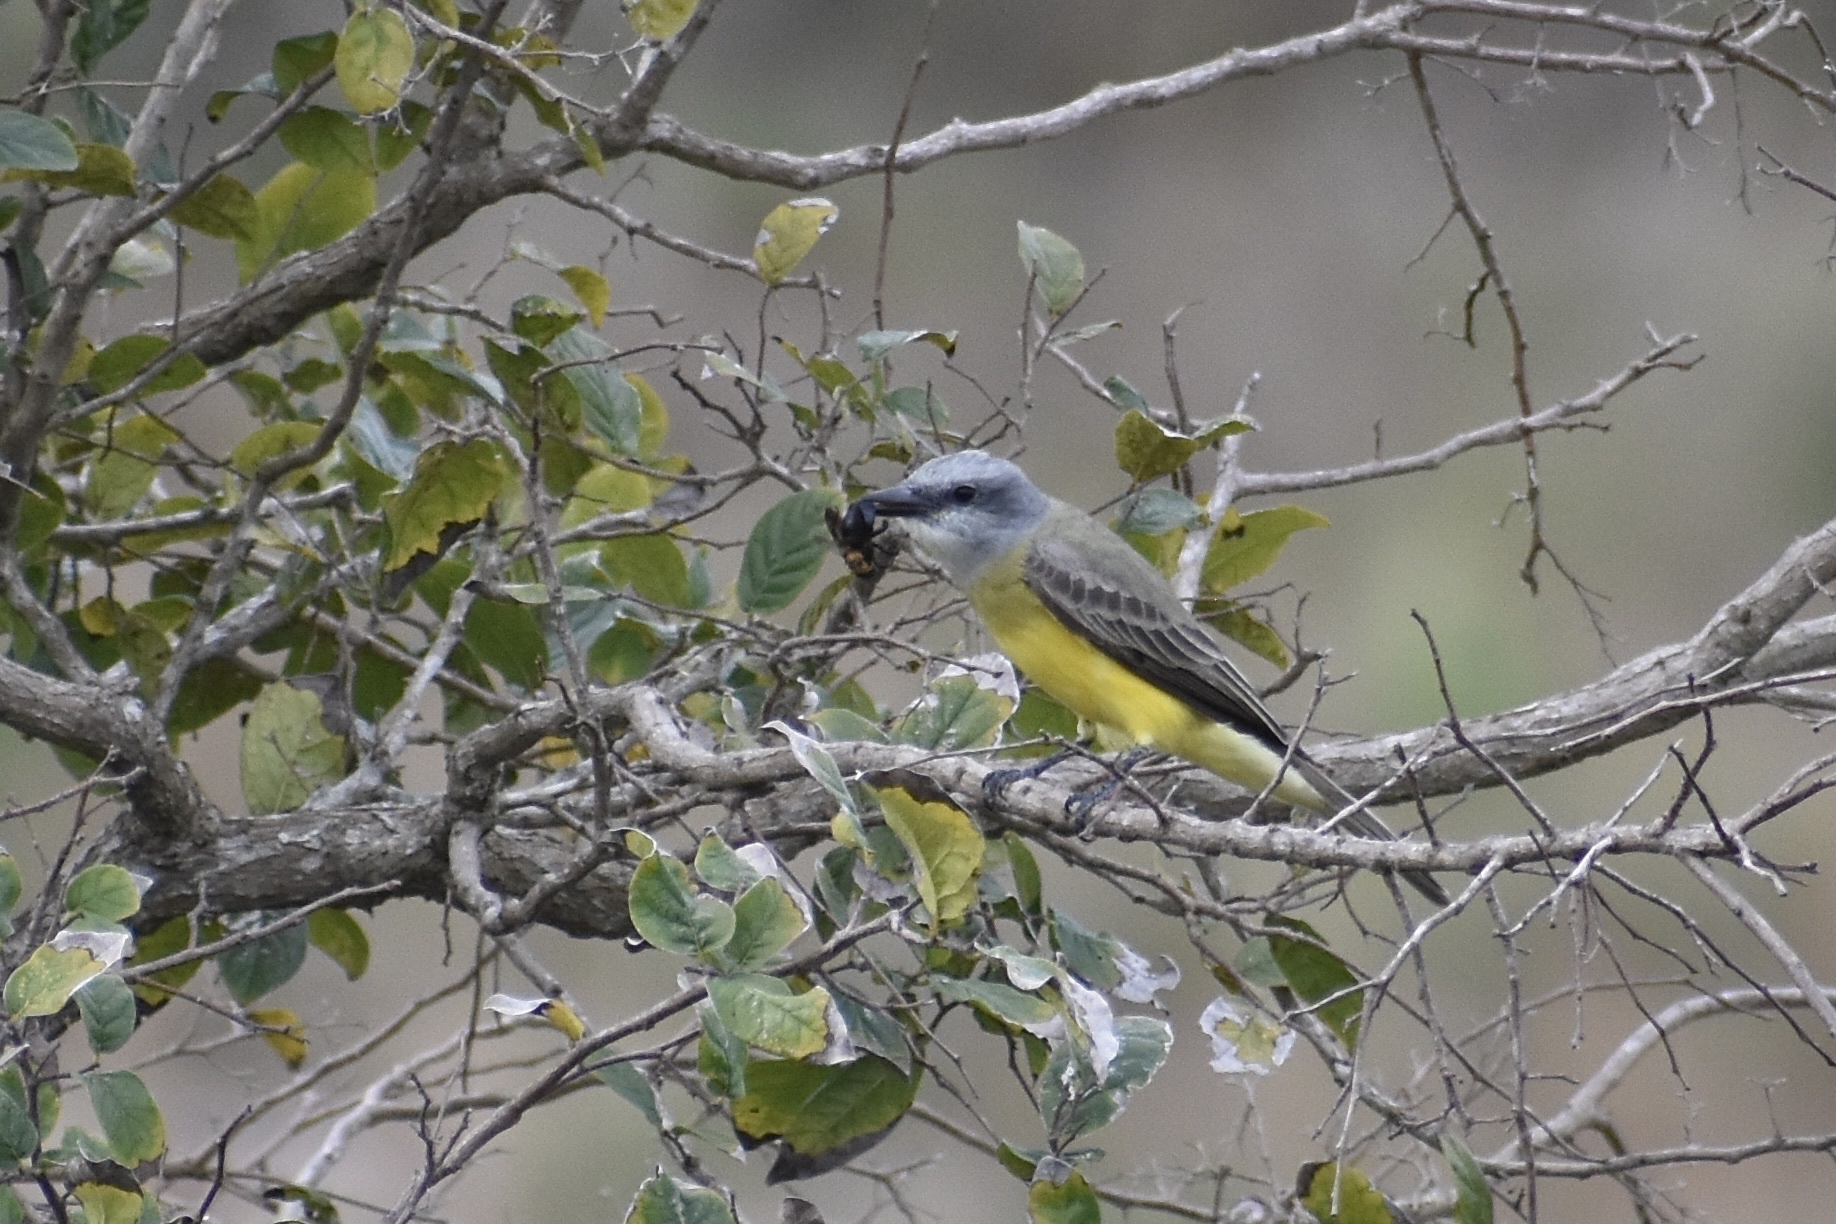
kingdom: Animalia
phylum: Chordata
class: Aves
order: Passeriformes
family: Tyrannidae
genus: Tyrannus
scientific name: Tyrannus couchii
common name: Couch's kingbird
